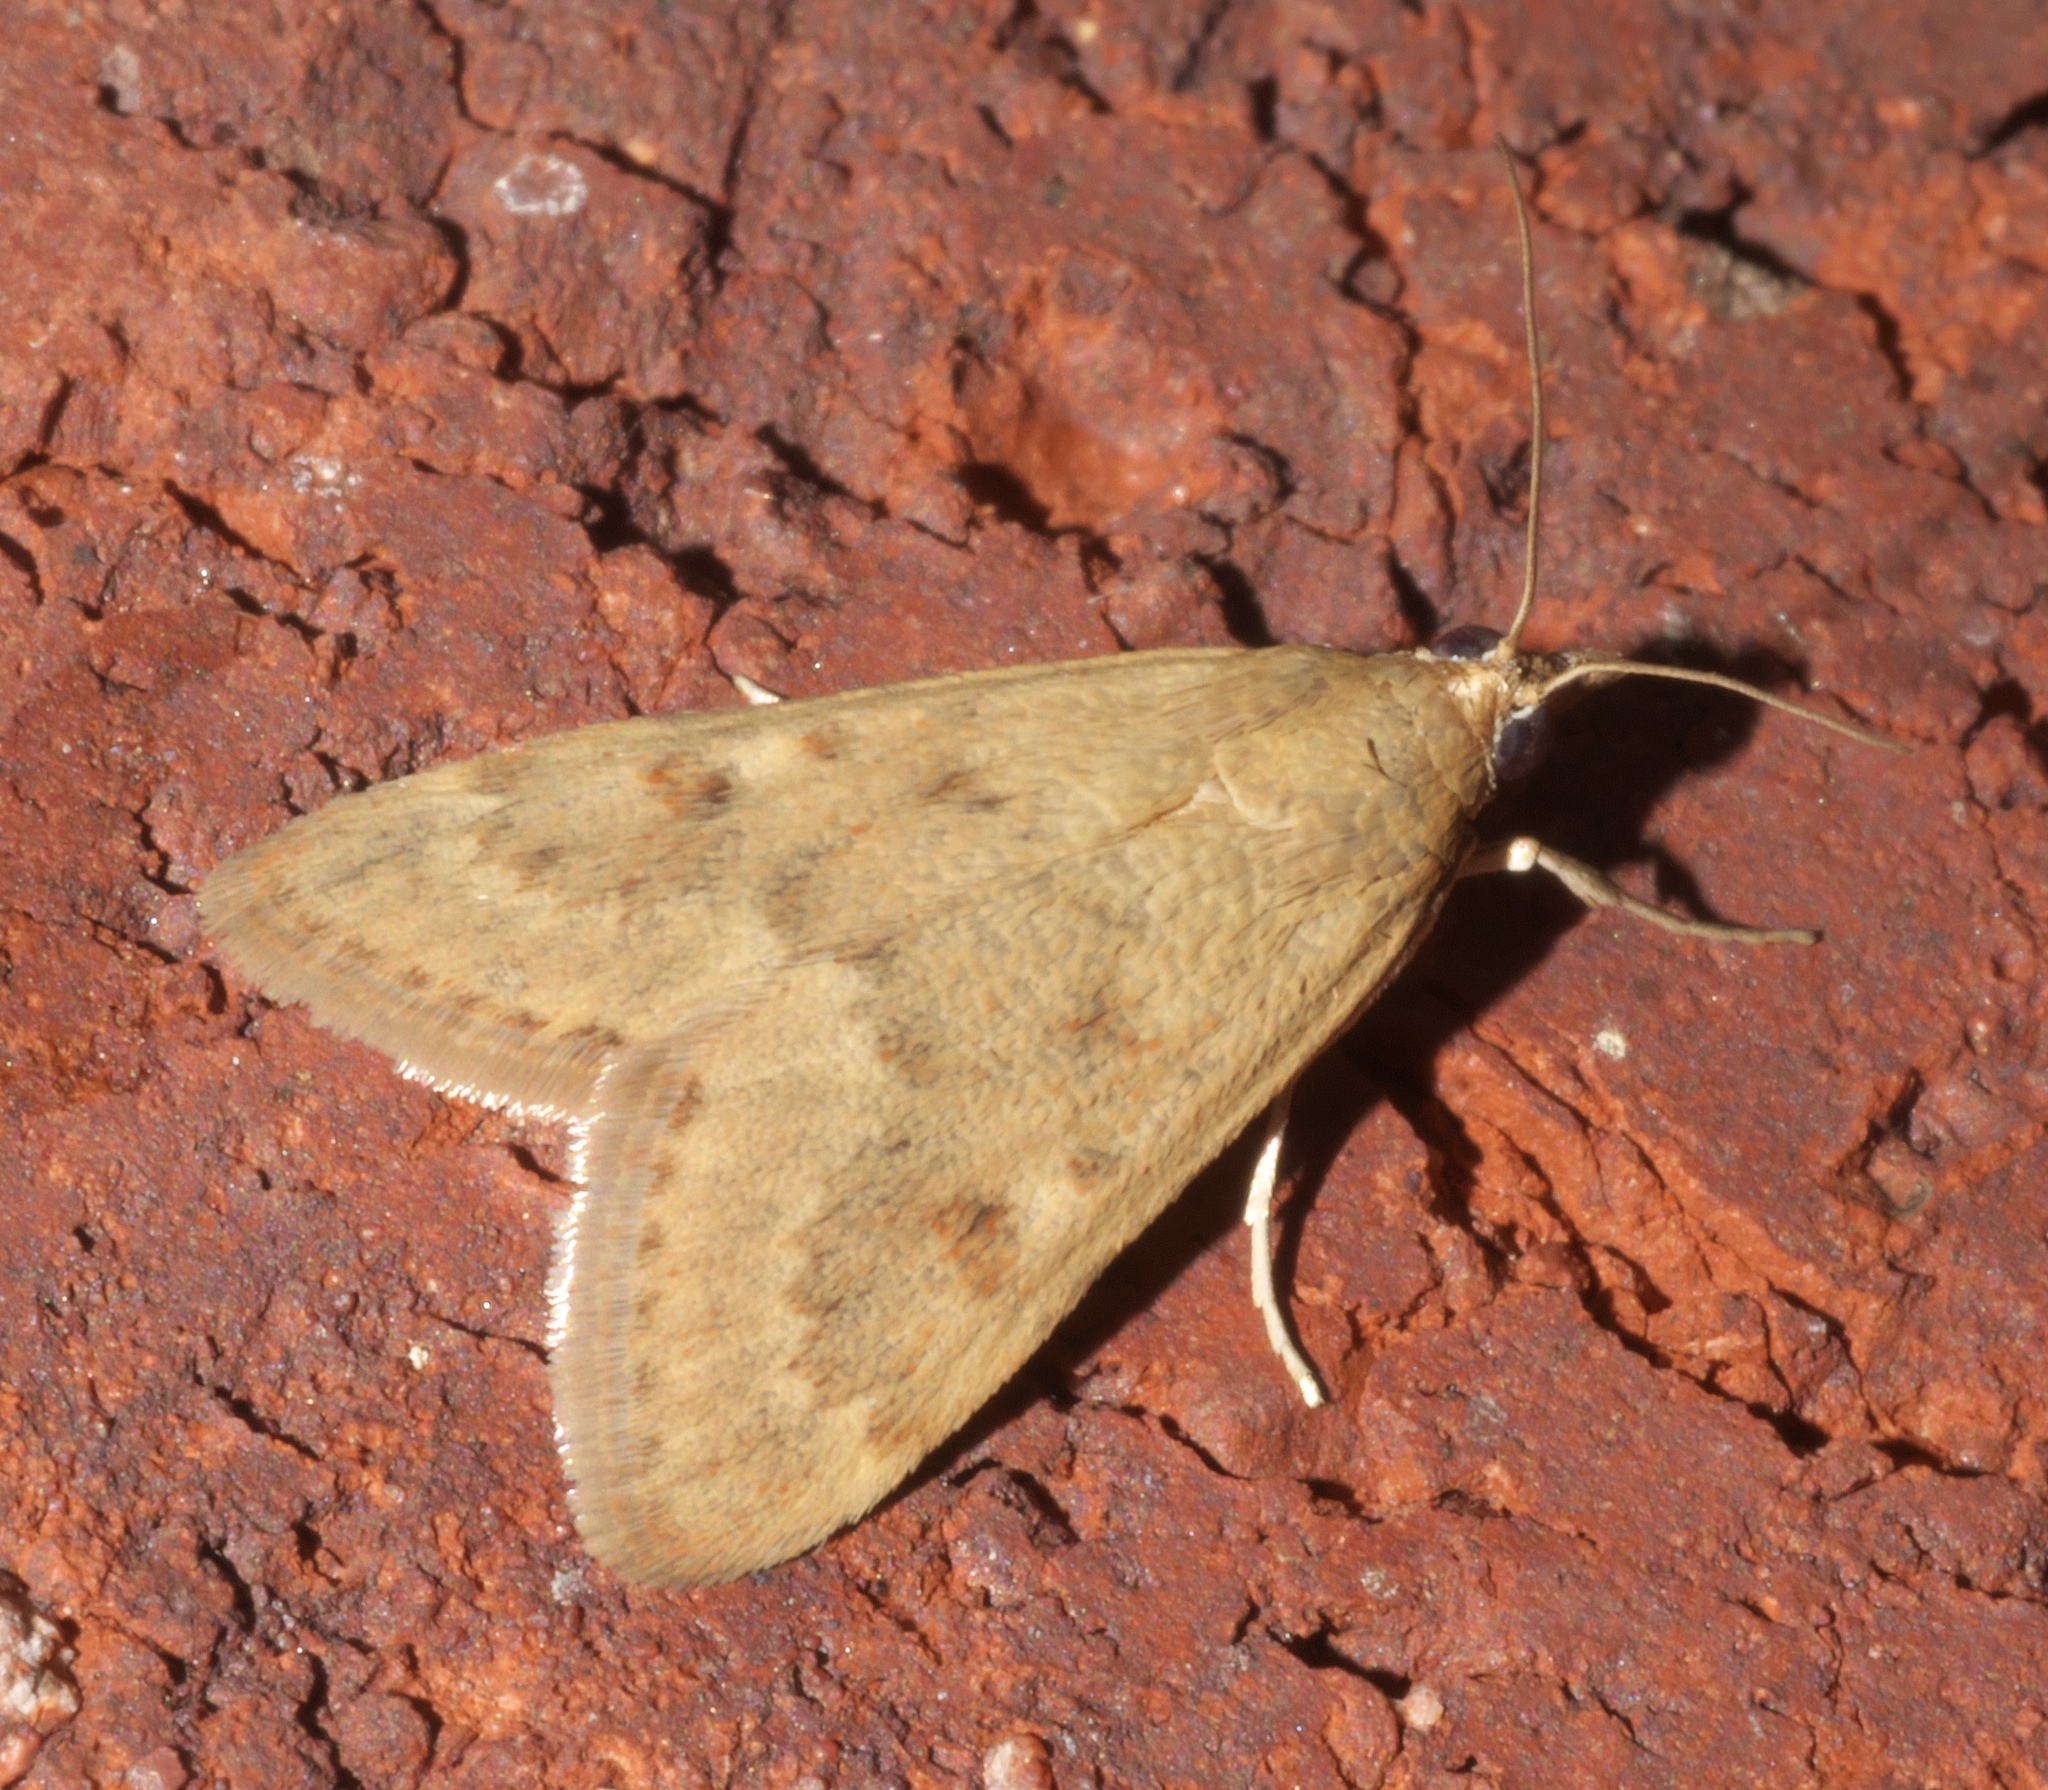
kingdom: Animalia
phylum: Arthropoda
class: Insecta
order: Lepidoptera
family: Crambidae
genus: Achyra
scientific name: Achyra rantalis
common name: Garden webworm
